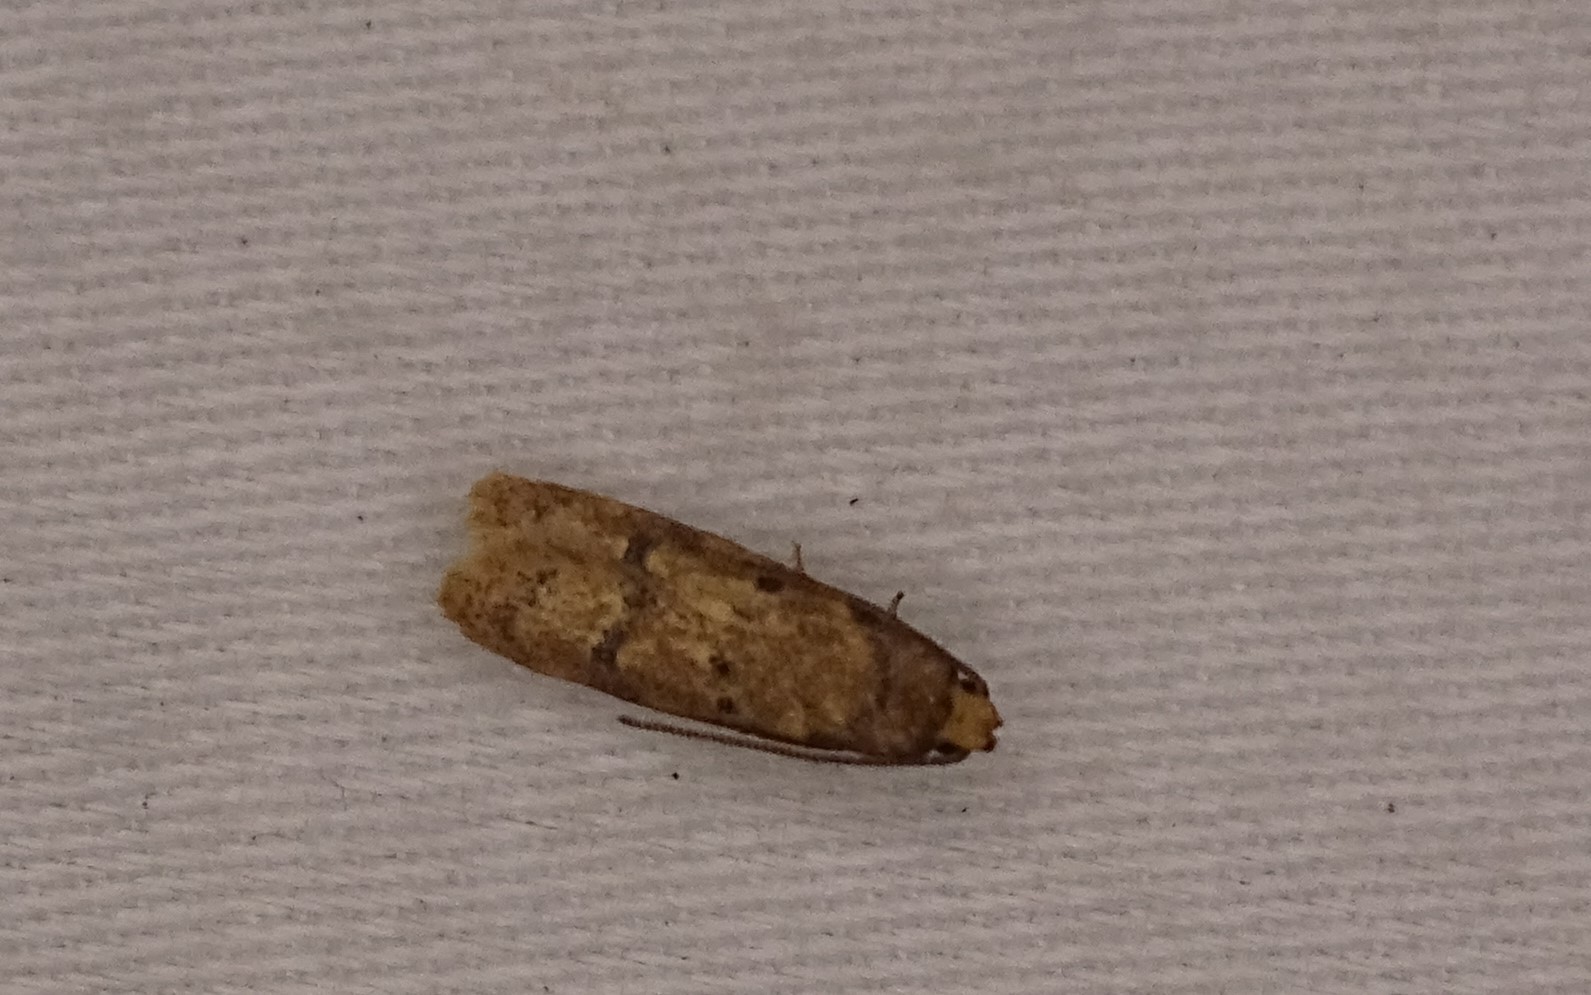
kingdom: Animalia
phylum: Arthropoda
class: Insecta
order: Lepidoptera
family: Autostichidae
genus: Gerdana
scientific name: Gerdana caritella
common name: Gerdana moth
